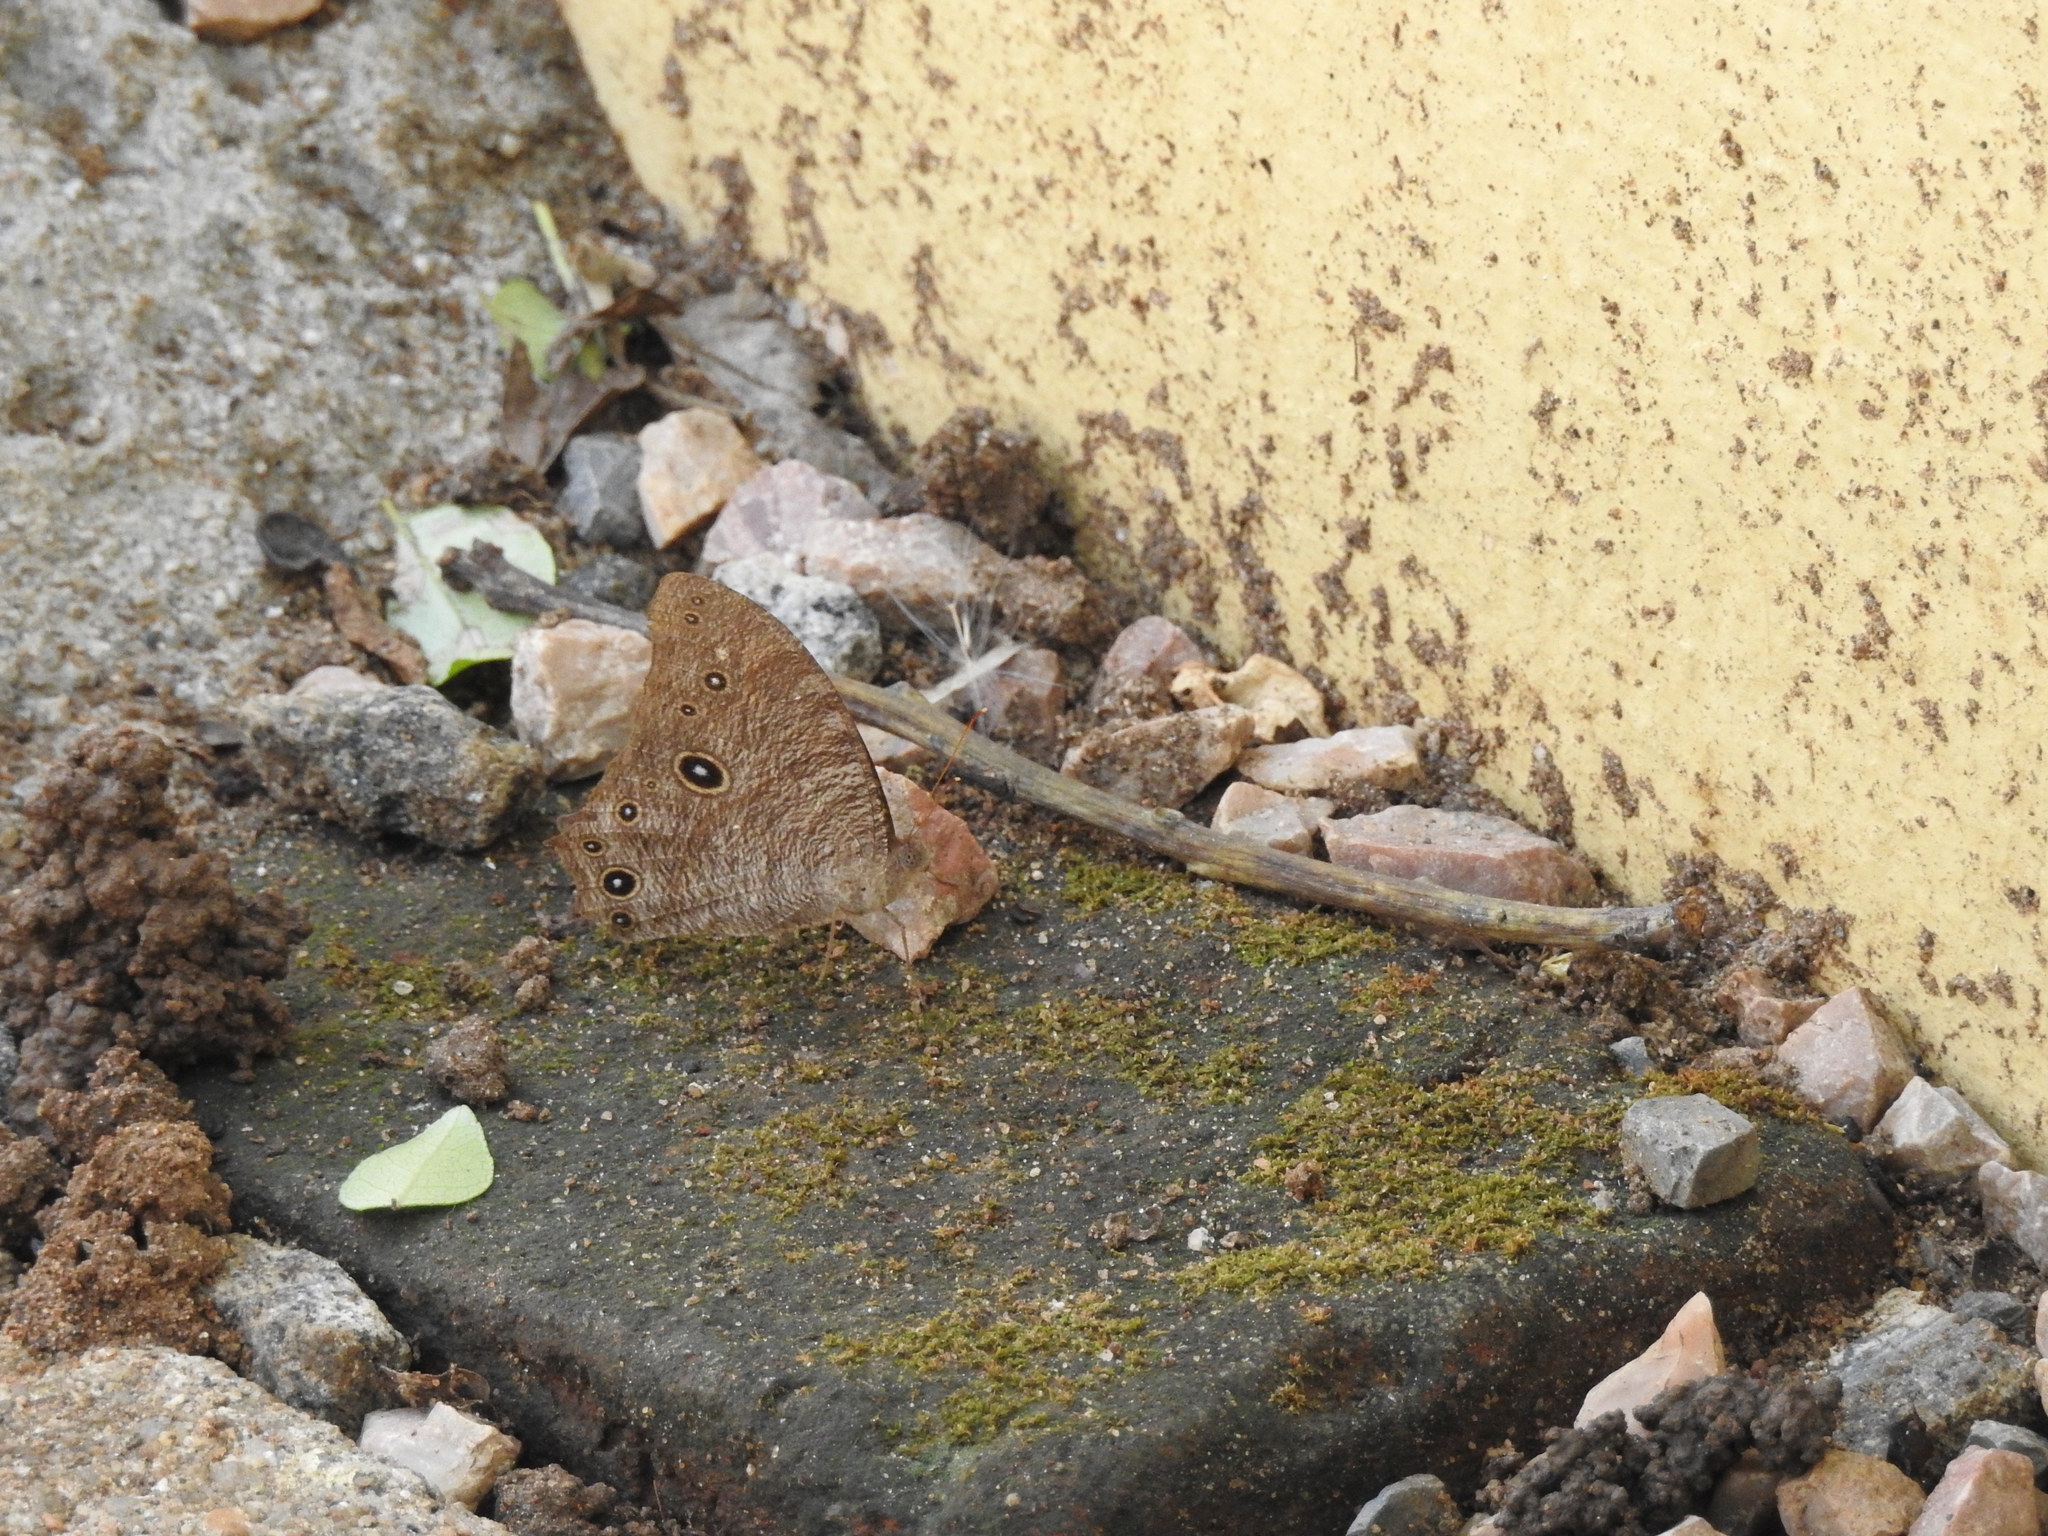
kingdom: Animalia
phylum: Arthropoda
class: Insecta
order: Lepidoptera
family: Nymphalidae
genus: Melanitis
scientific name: Melanitis leda
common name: Twilight brown
